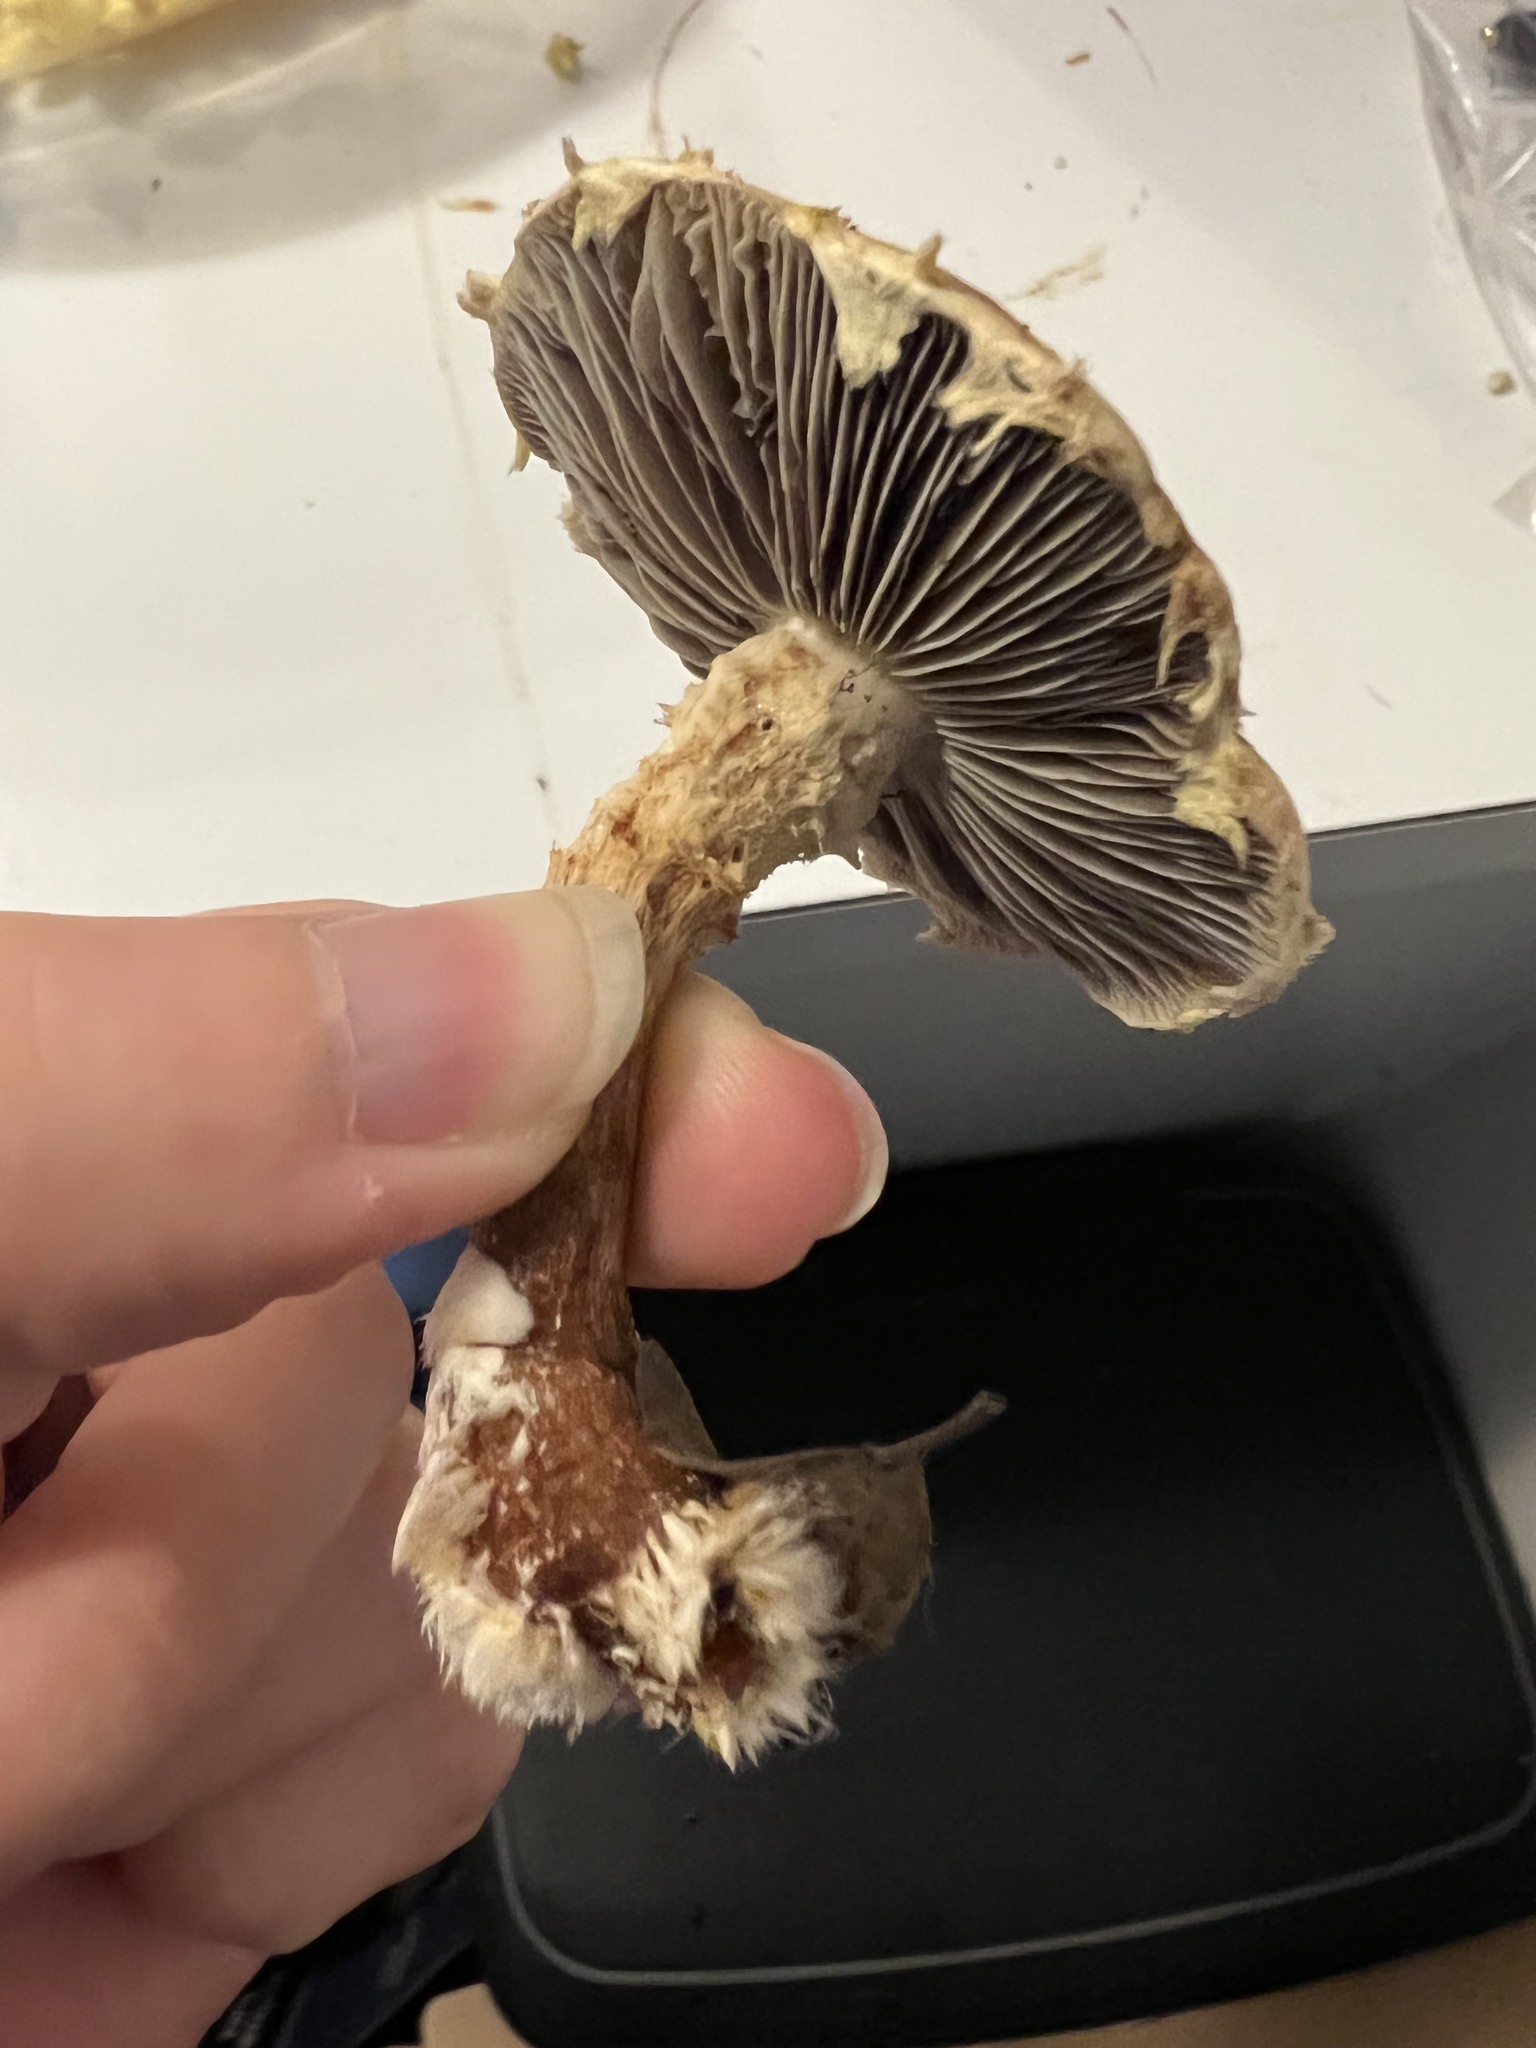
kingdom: Fungi
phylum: Basidiomycota
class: Agaricomycetes
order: Agaricales
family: Strophariaceae
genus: Leratiomyces
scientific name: Leratiomyces percevalii
